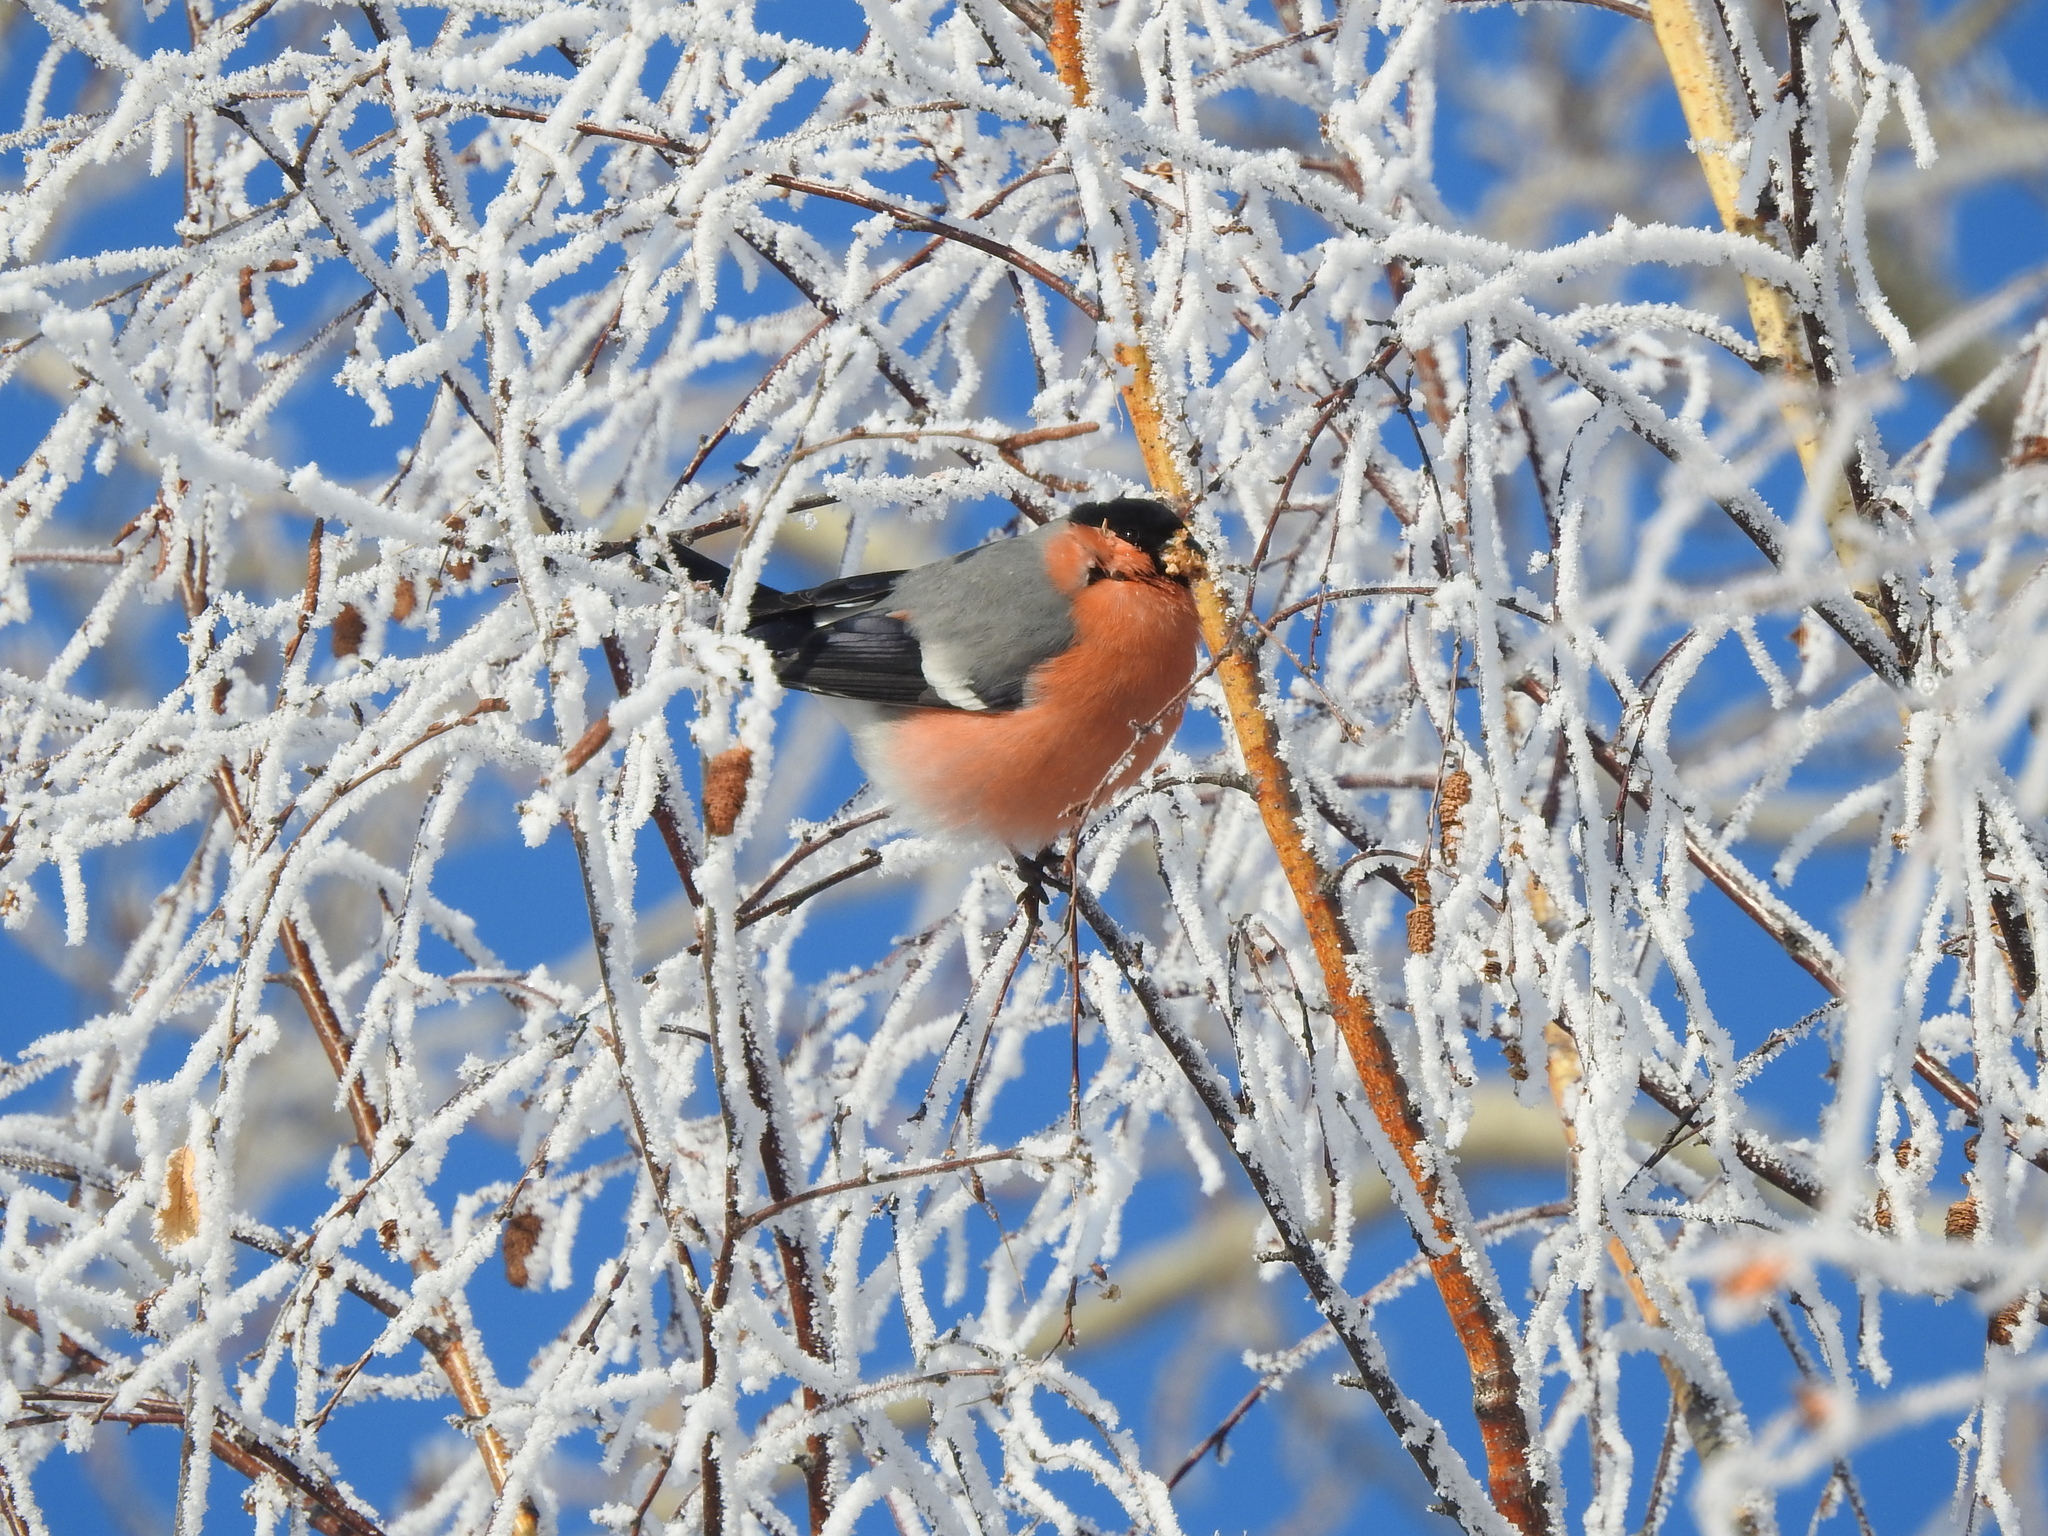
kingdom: Animalia
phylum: Chordata
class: Aves
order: Passeriformes
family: Fringillidae
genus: Pyrrhula
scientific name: Pyrrhula pyrrhula
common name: Eurasian bullfinch
